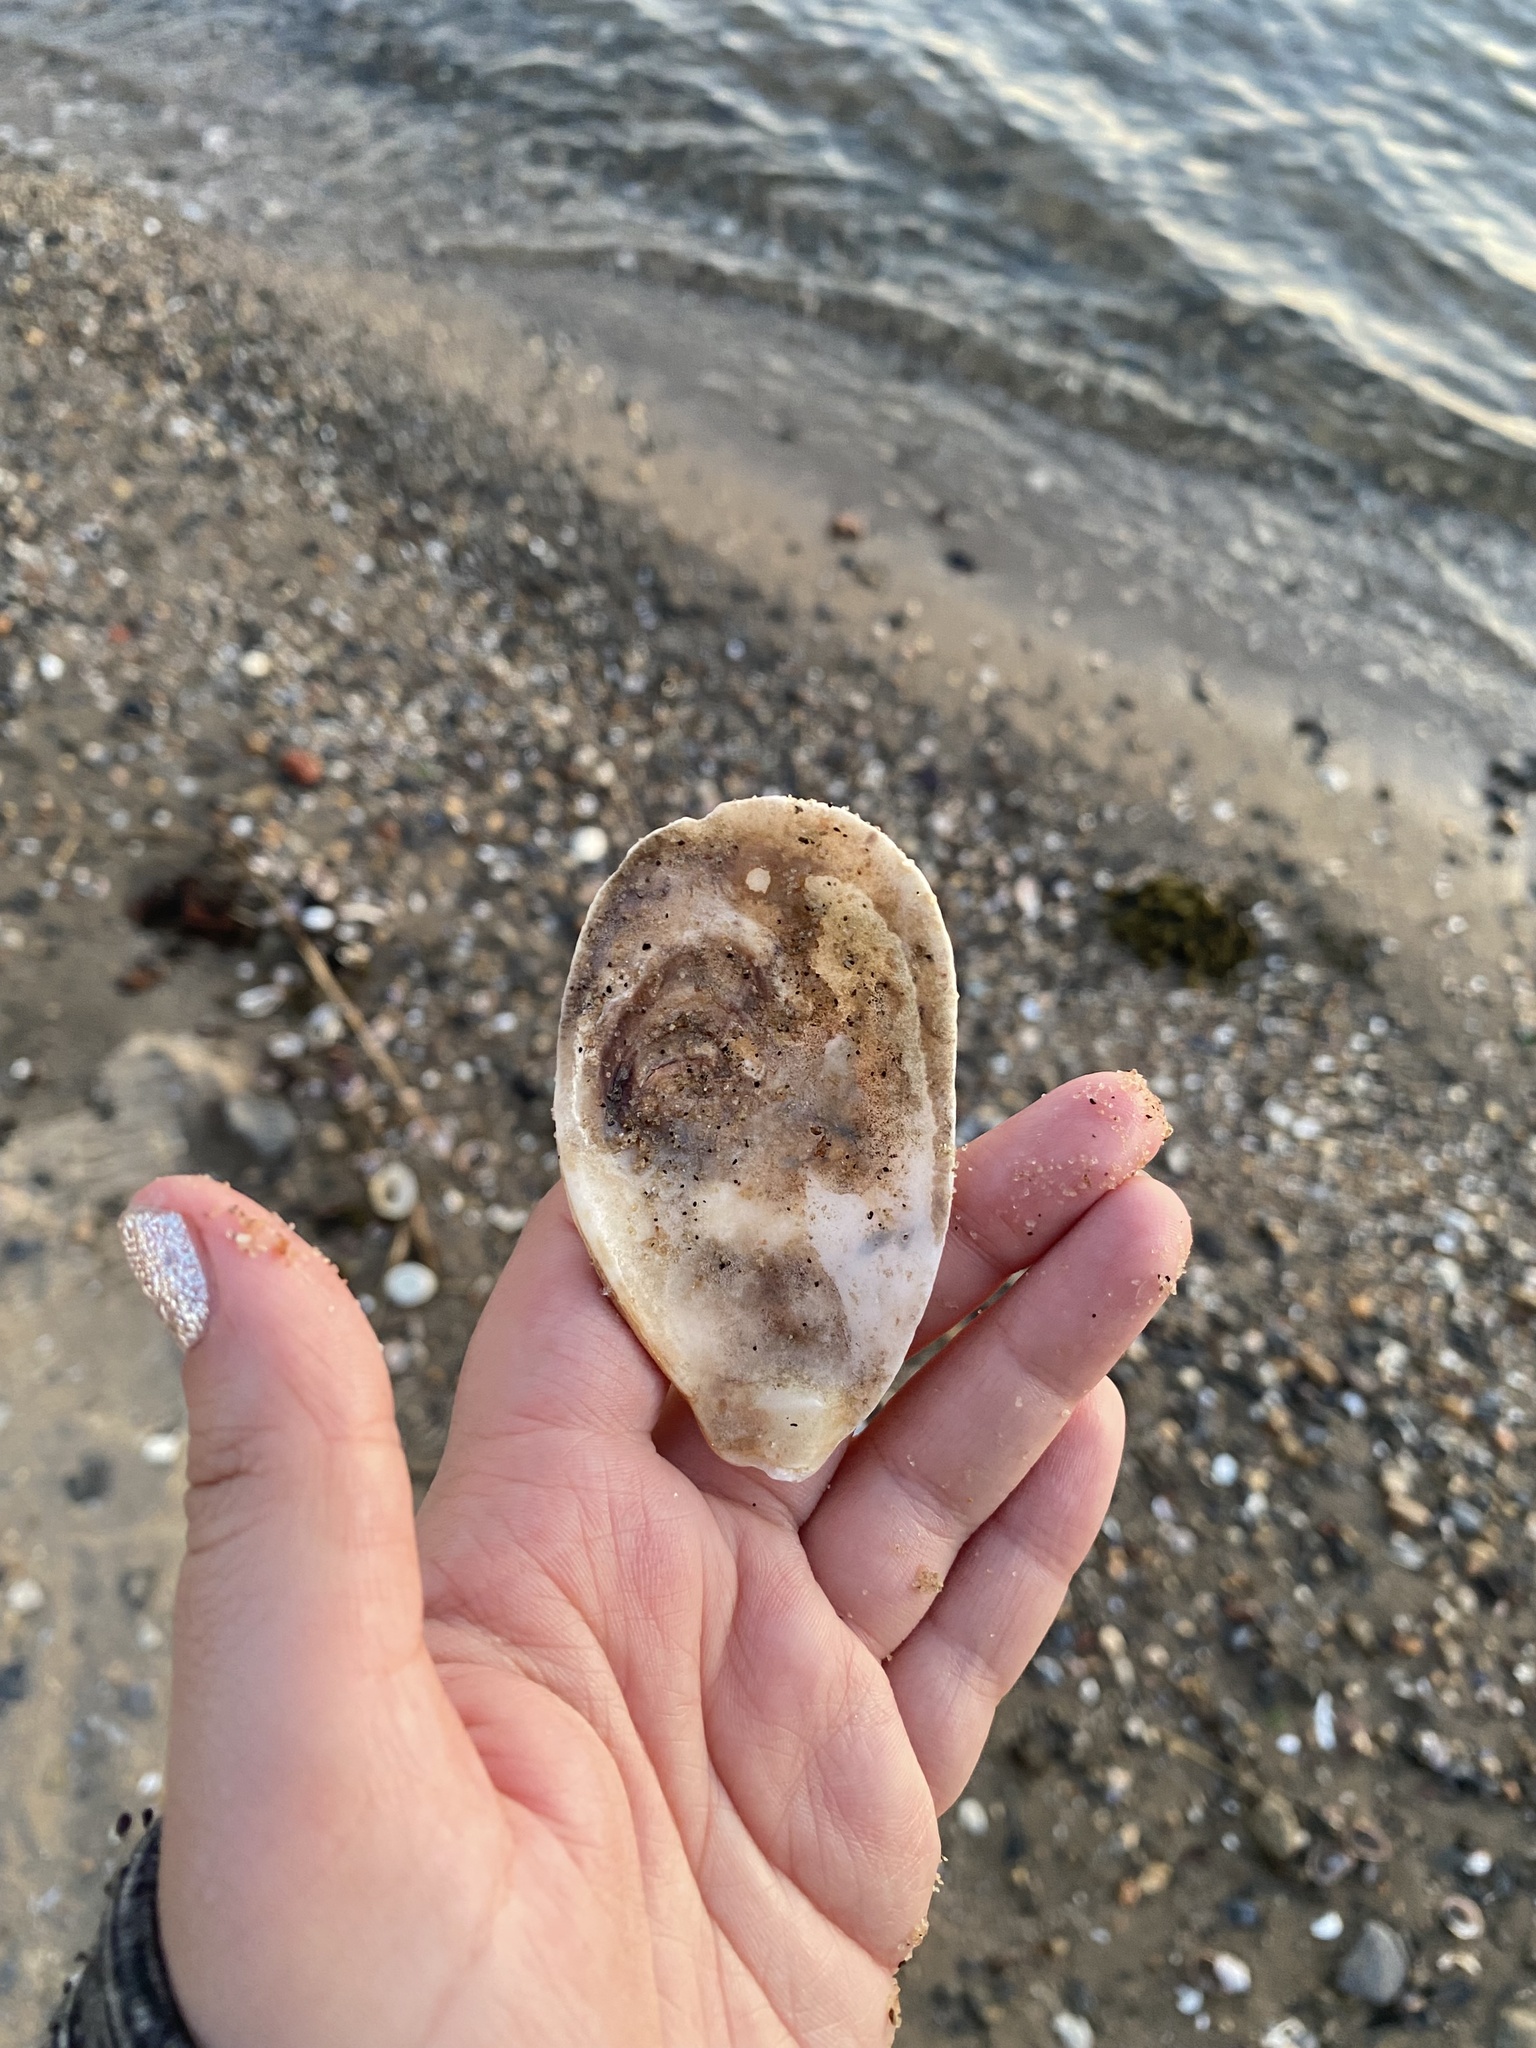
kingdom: Animalia
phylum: Mollusca
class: Bivalvia
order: Ostreida
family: Ostreidae
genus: Crassostrea
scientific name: Crassostrea virginica
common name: American oyster
